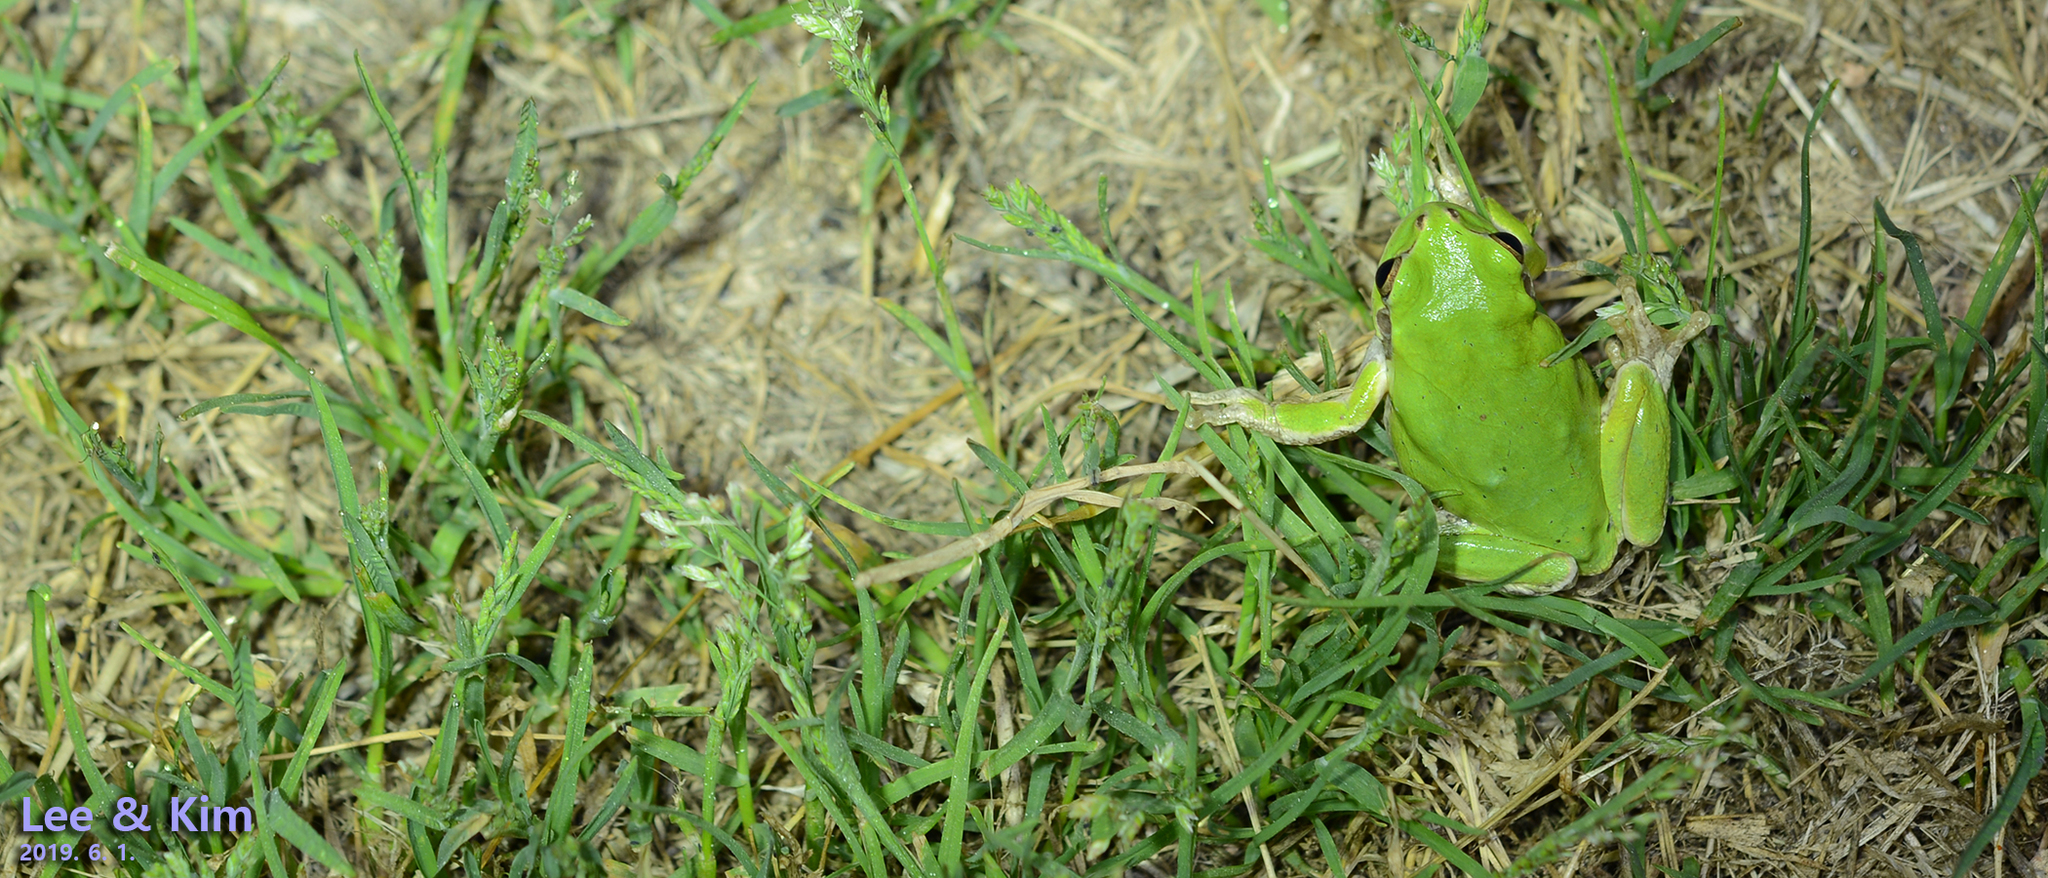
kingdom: Animalia
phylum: Chordata
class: Amphibia
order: Anura
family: Hylidae
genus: Dryophytes
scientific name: Dryophytes japonicus
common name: Japanese treefrog
